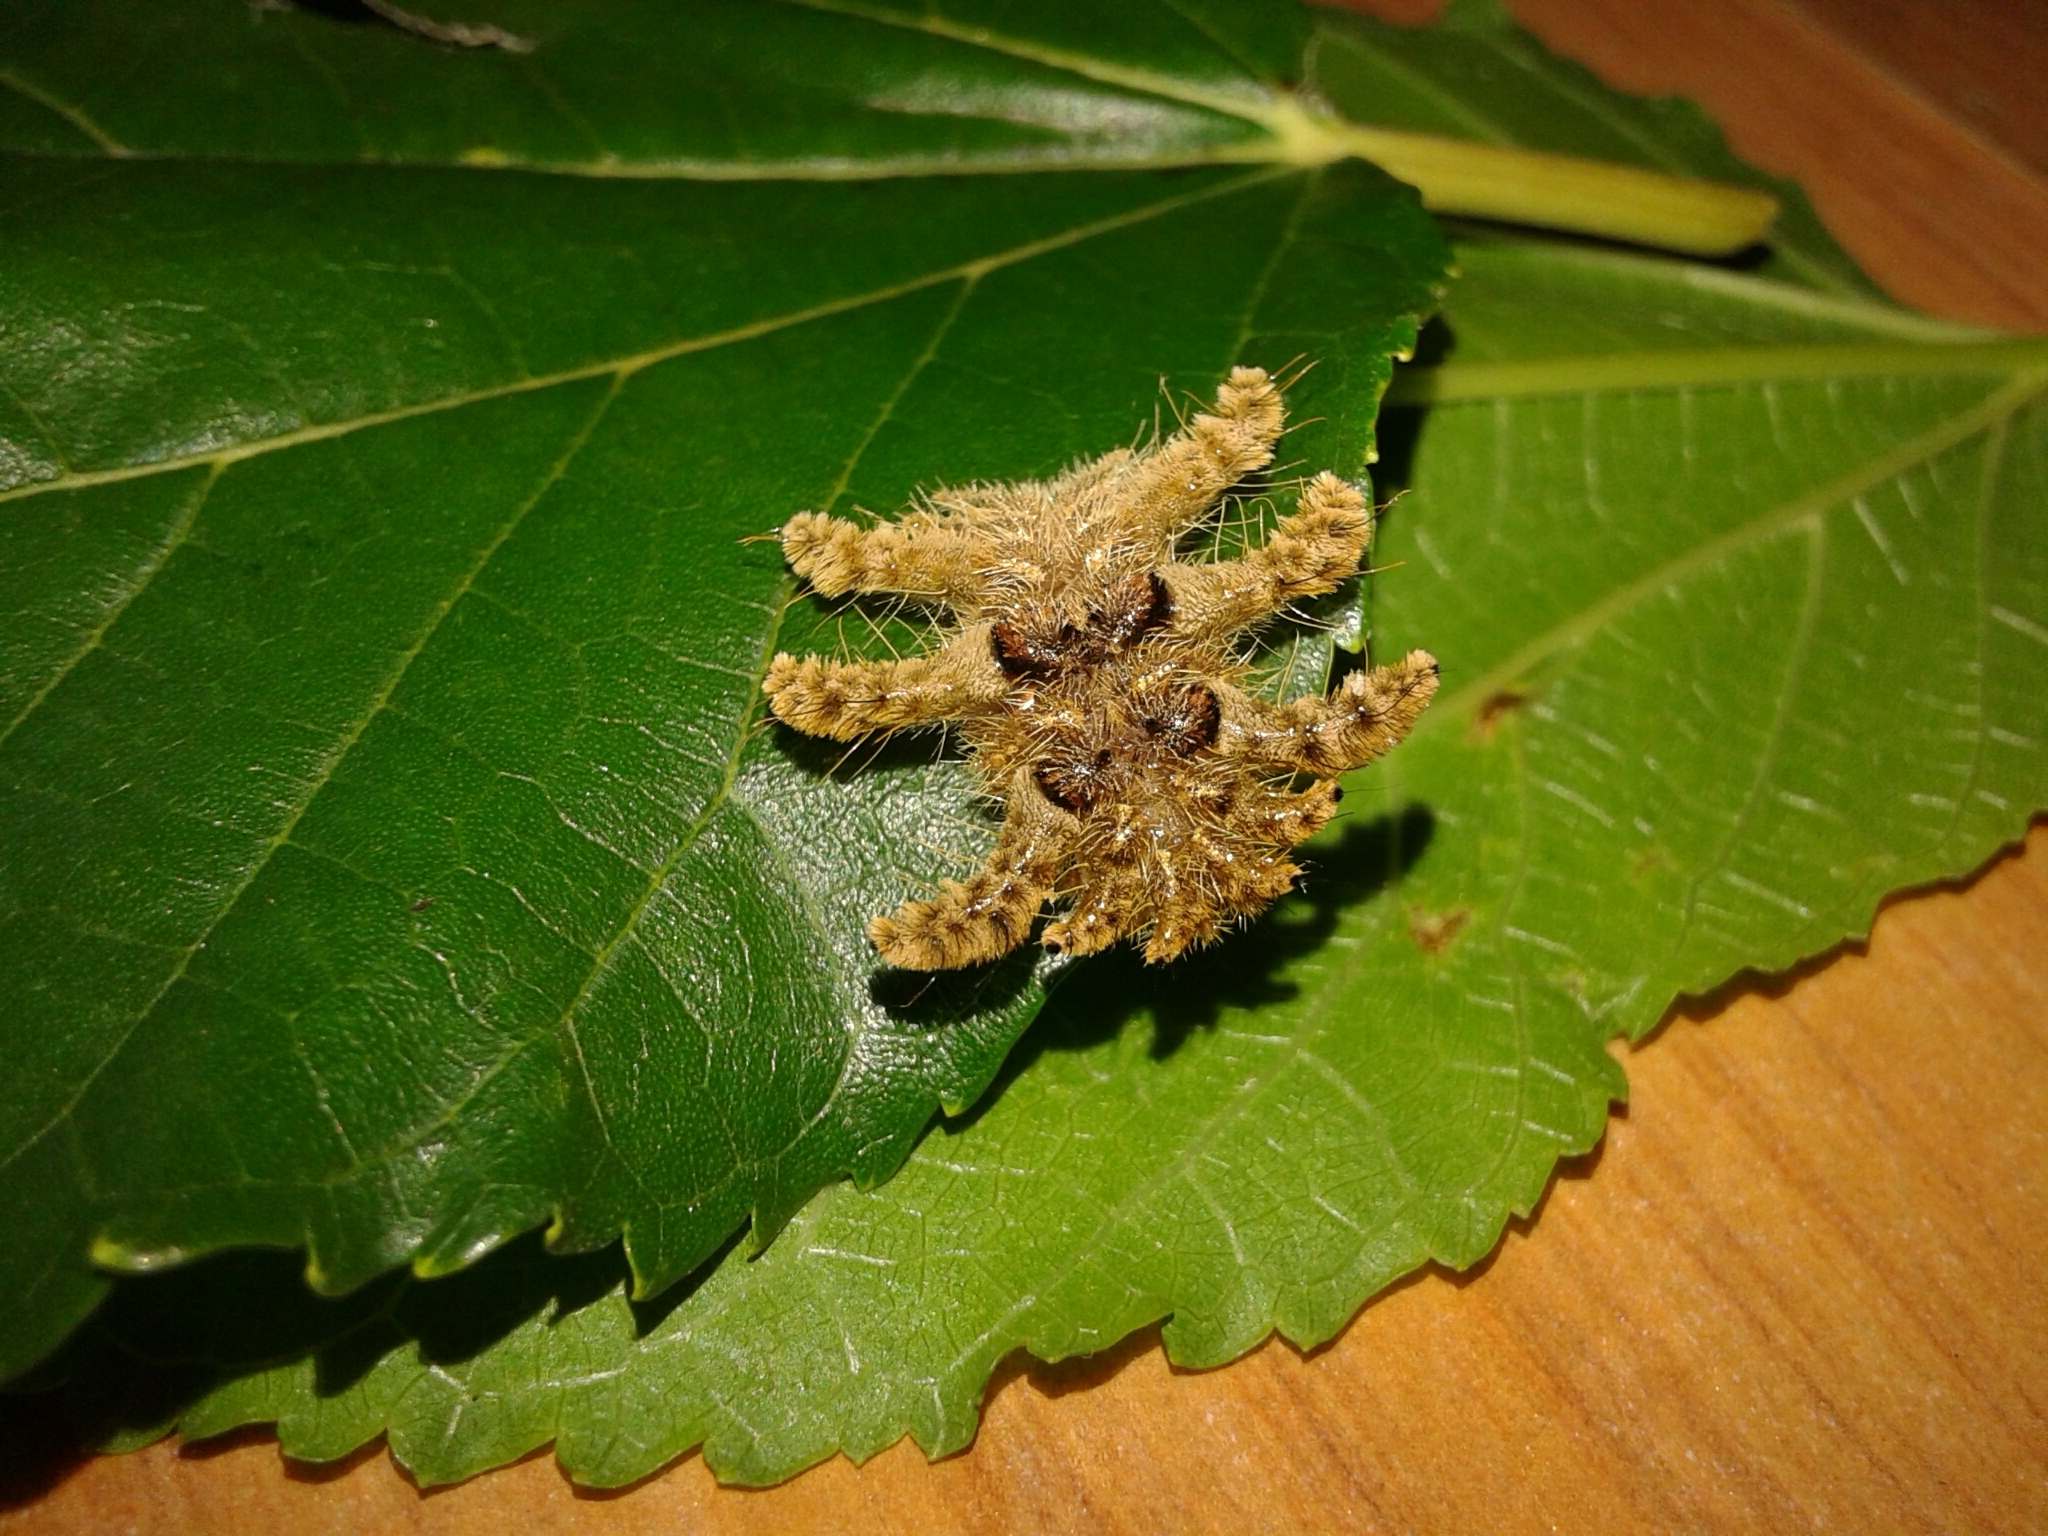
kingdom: Animalia
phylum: Arthropoda
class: Insecta
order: Lepidoptera
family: Limacodidae
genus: Phobetron
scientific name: Phobetron hipparchia
